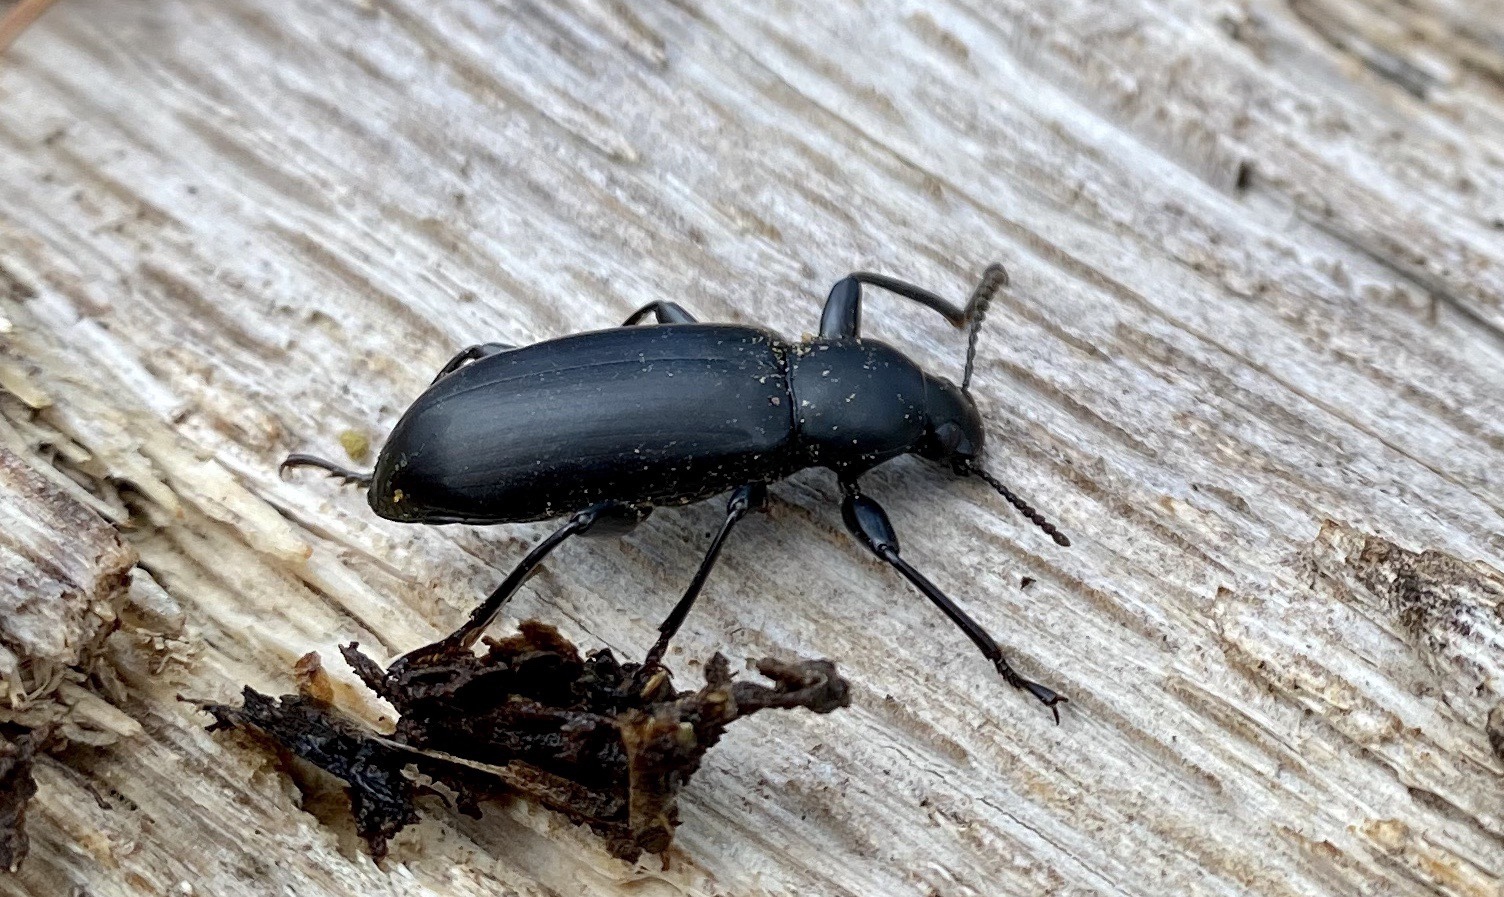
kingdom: Animalia
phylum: Arthropoda
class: Insecta
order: Coleoptera
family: Tenebrionidae
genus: Merinus
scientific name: Merinus laevis
